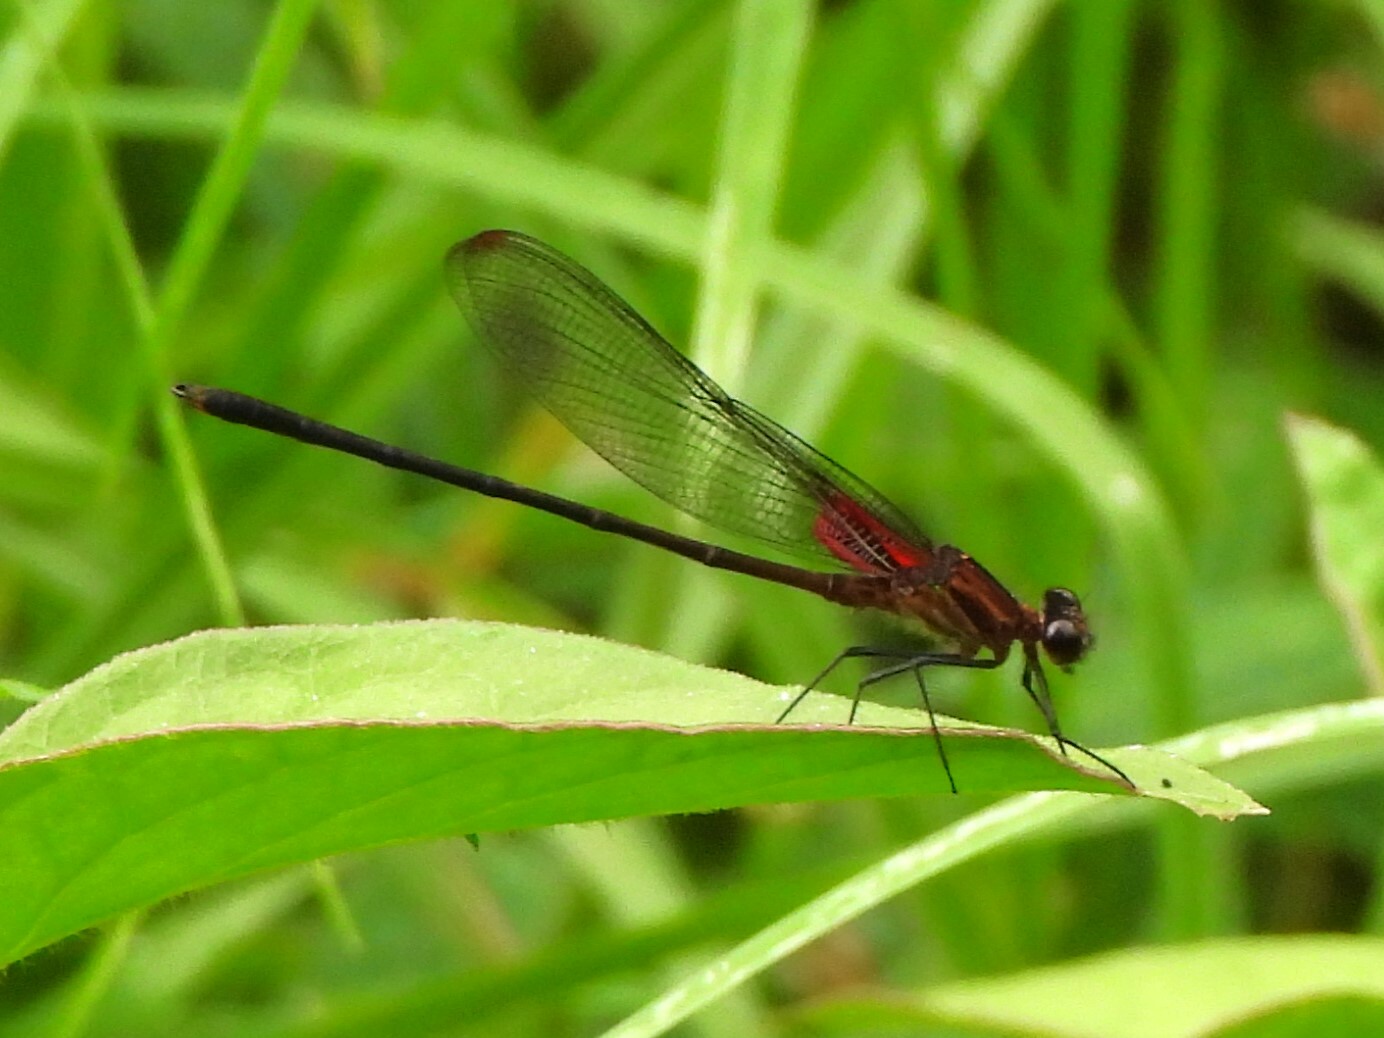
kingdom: Animalia
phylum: Arthropoda
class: Insecta
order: Odonata
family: Calopterygidae
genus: Hetaerina
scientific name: Hetaerina cruentata
